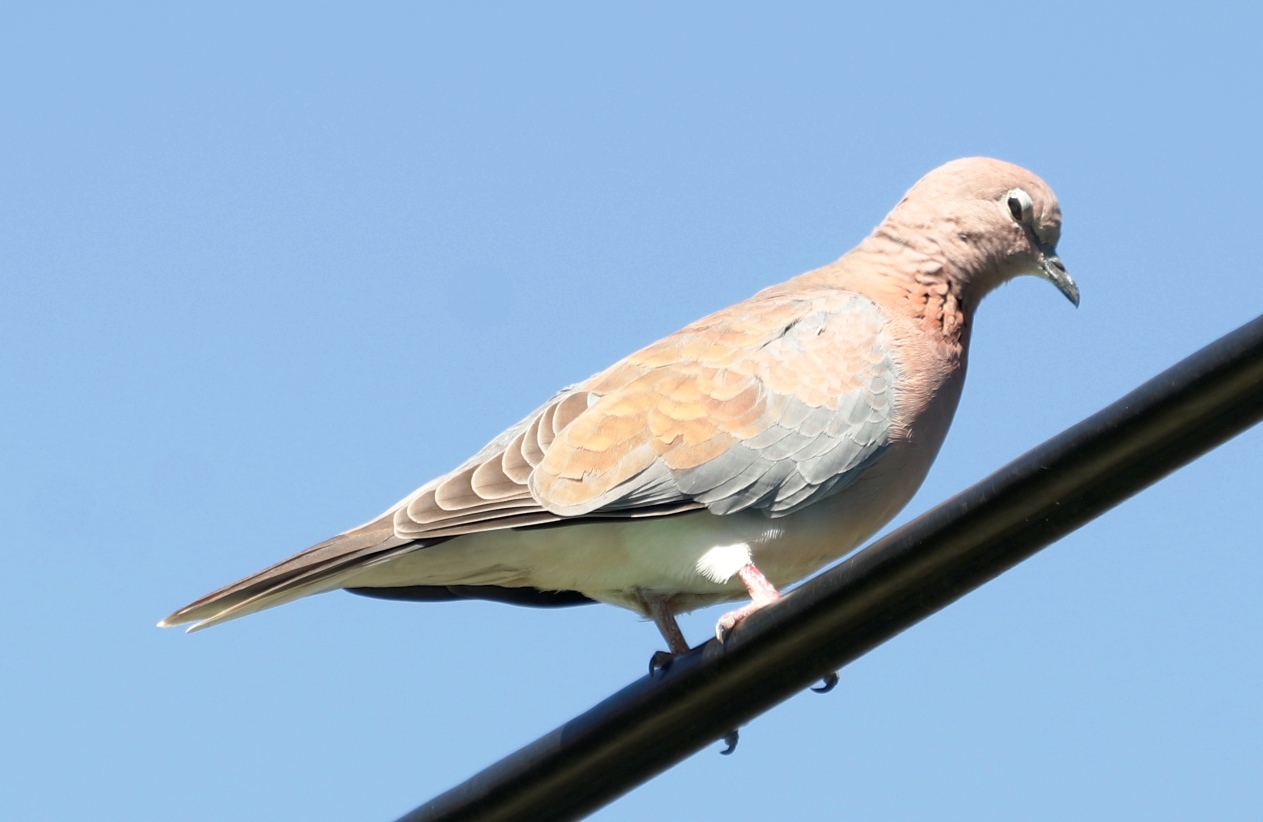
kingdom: Animalia
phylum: Chordata
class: Aves
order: Columbiformes
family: Columbidae
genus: Spilopelia
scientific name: Spilopelia senegalensis
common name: Laughing dove
